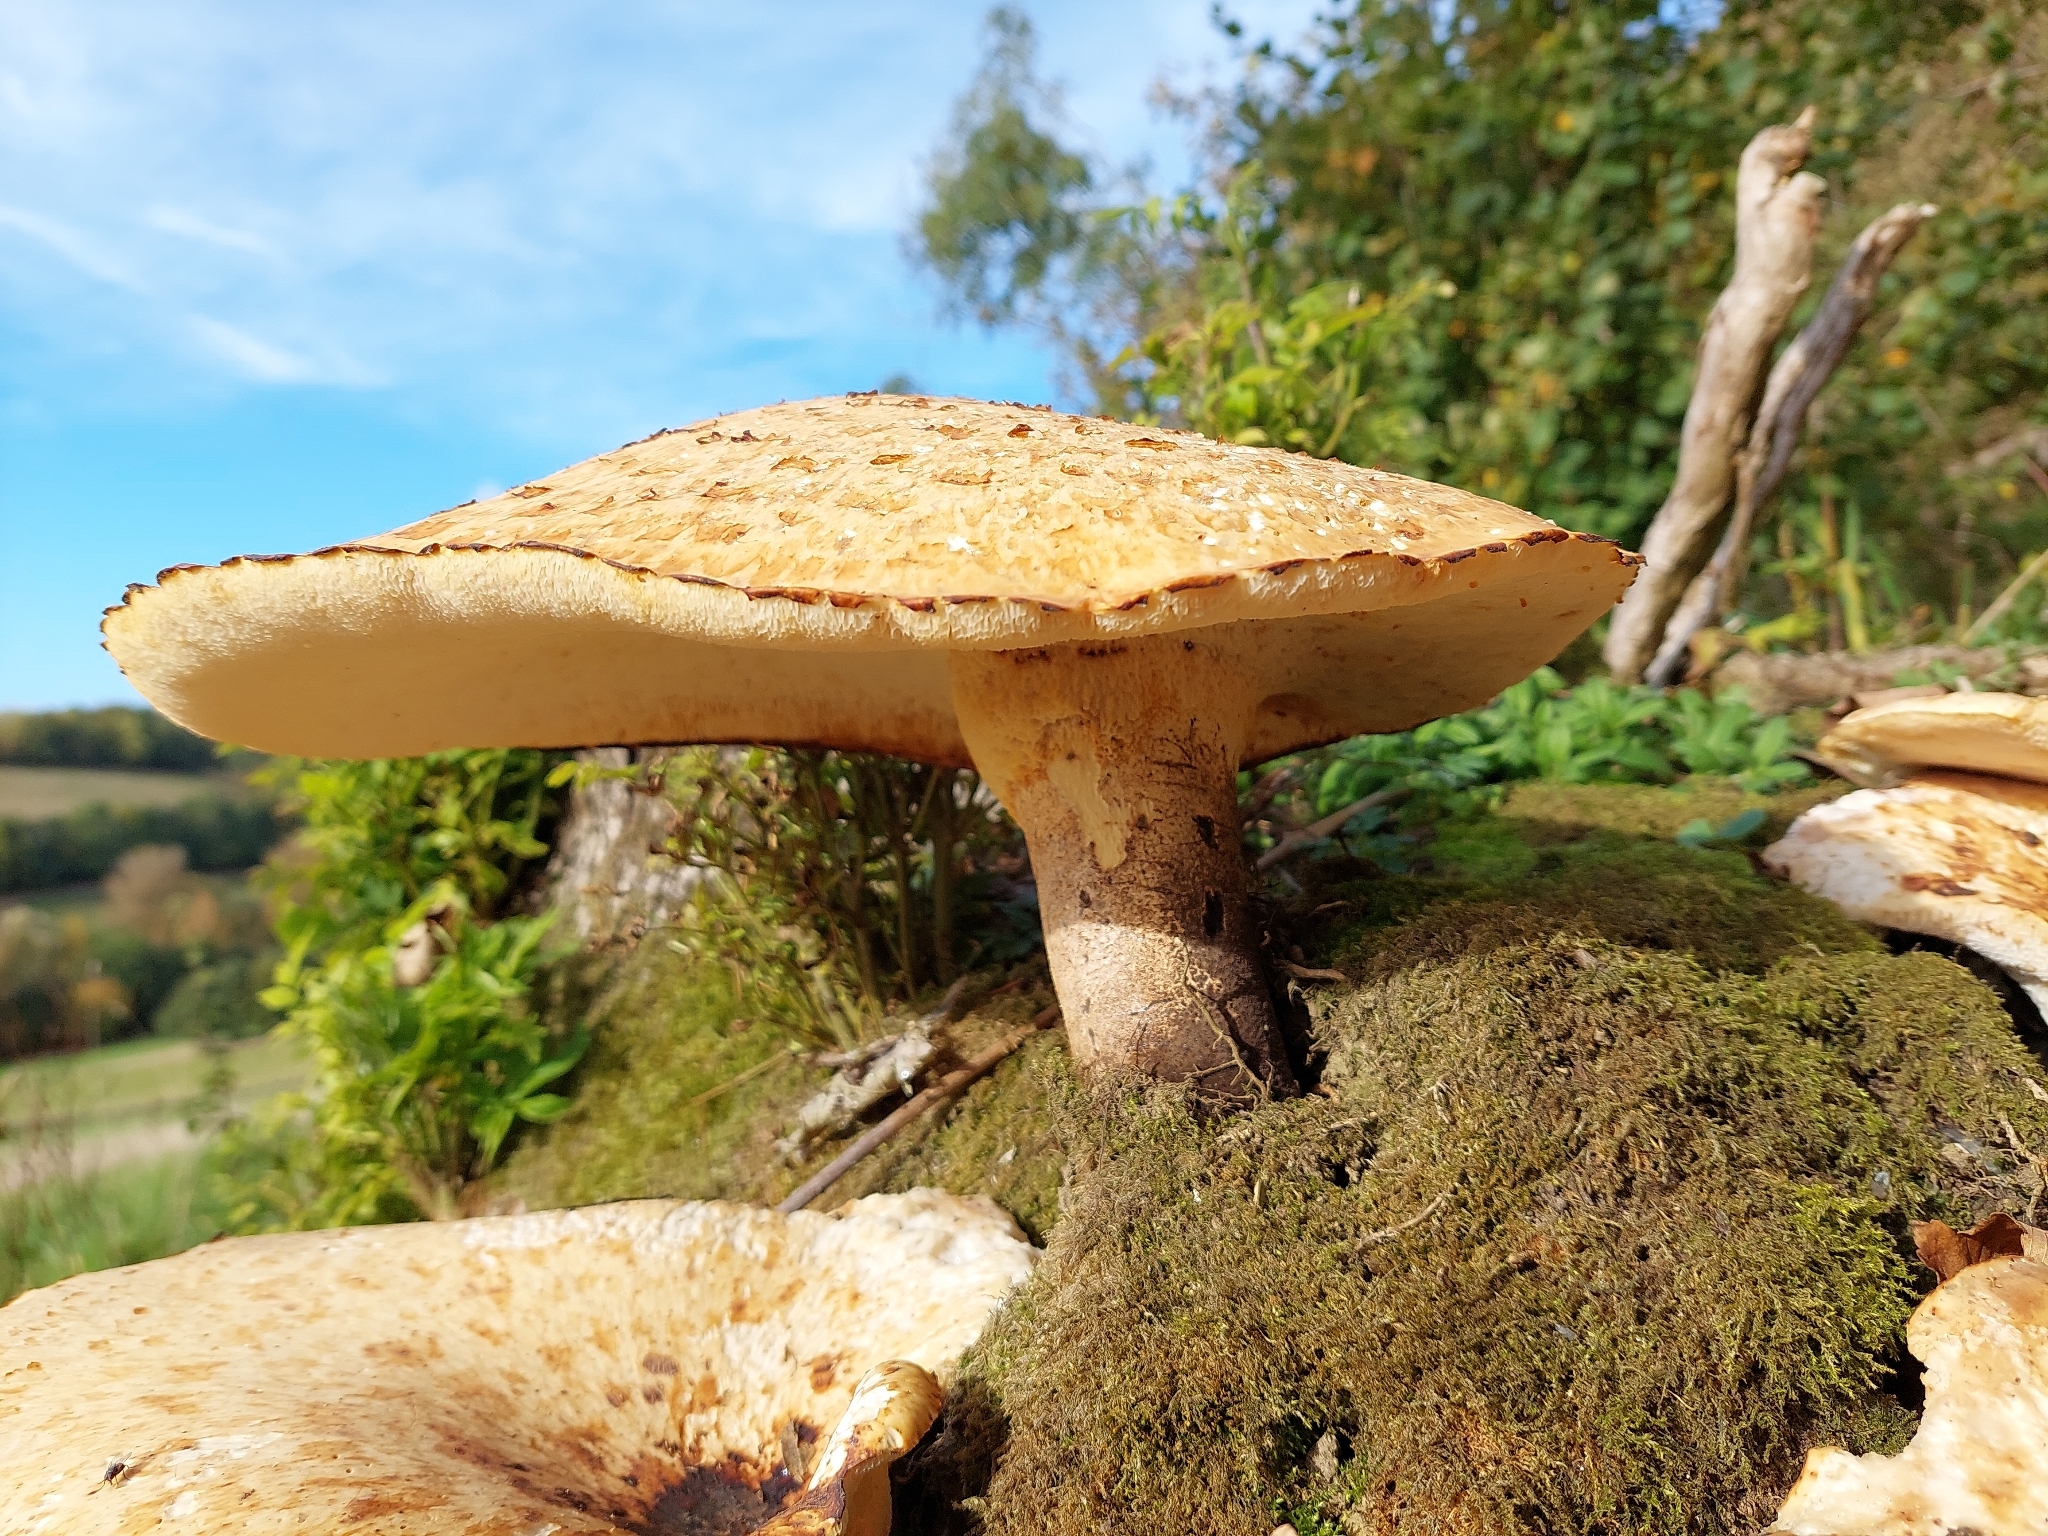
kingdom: Fungi
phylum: Basidiomycota
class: Agaricomycetes
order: Polyporales
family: Polyporaceae
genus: Cerioporus
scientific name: Cerioporus squamosus
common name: Dryad's saddle
